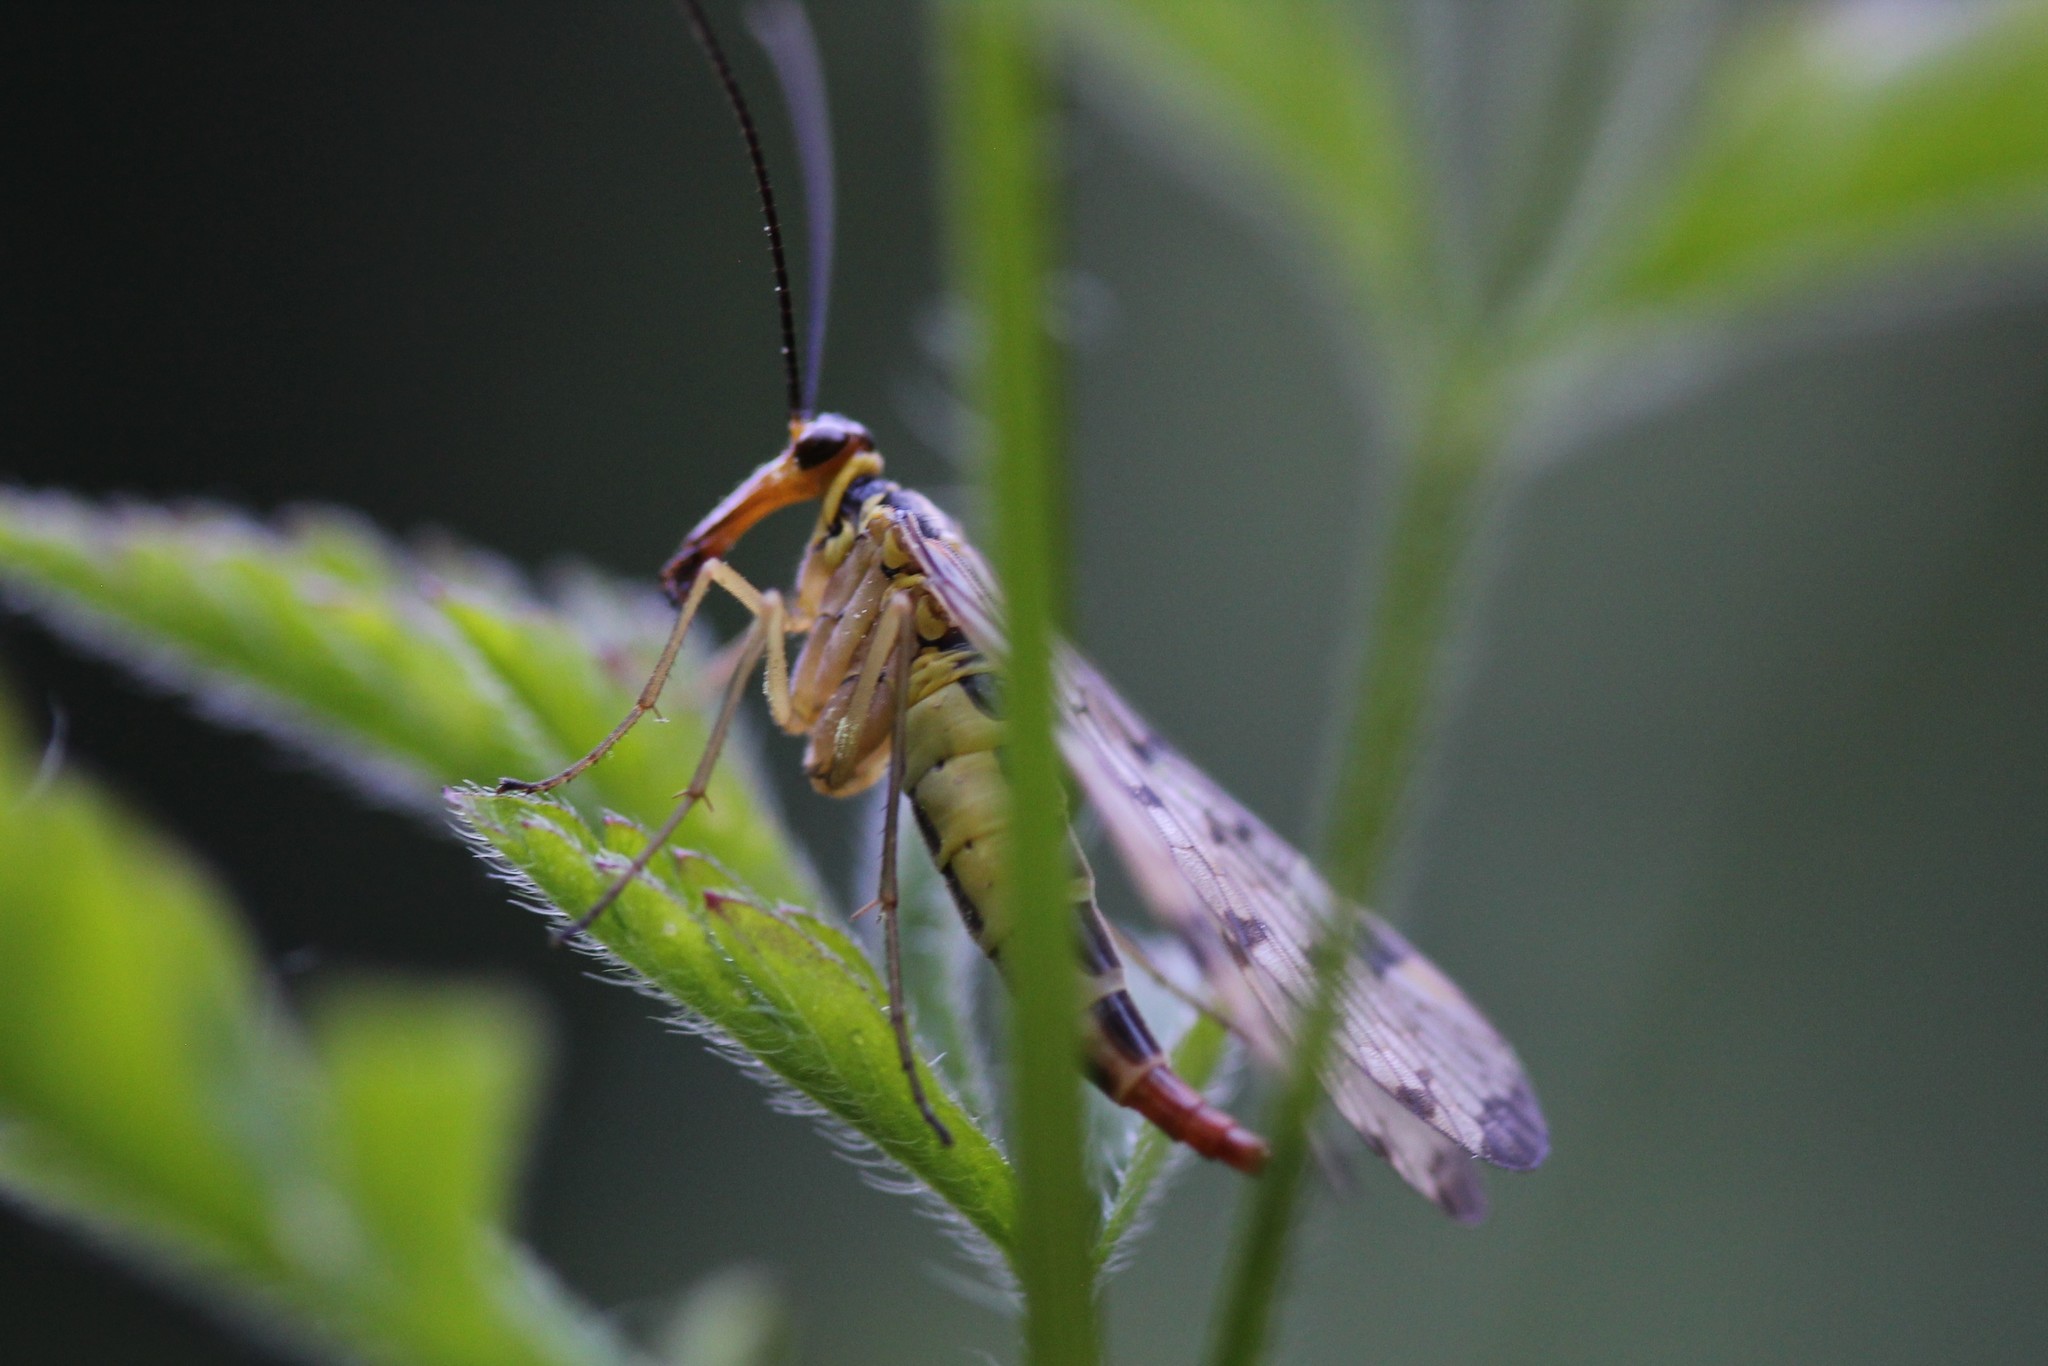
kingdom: Animalia
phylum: Arthropoda
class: Insecta
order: Mecoptera
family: Panorpidae
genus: Panorpa
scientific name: Panorpa germanica
